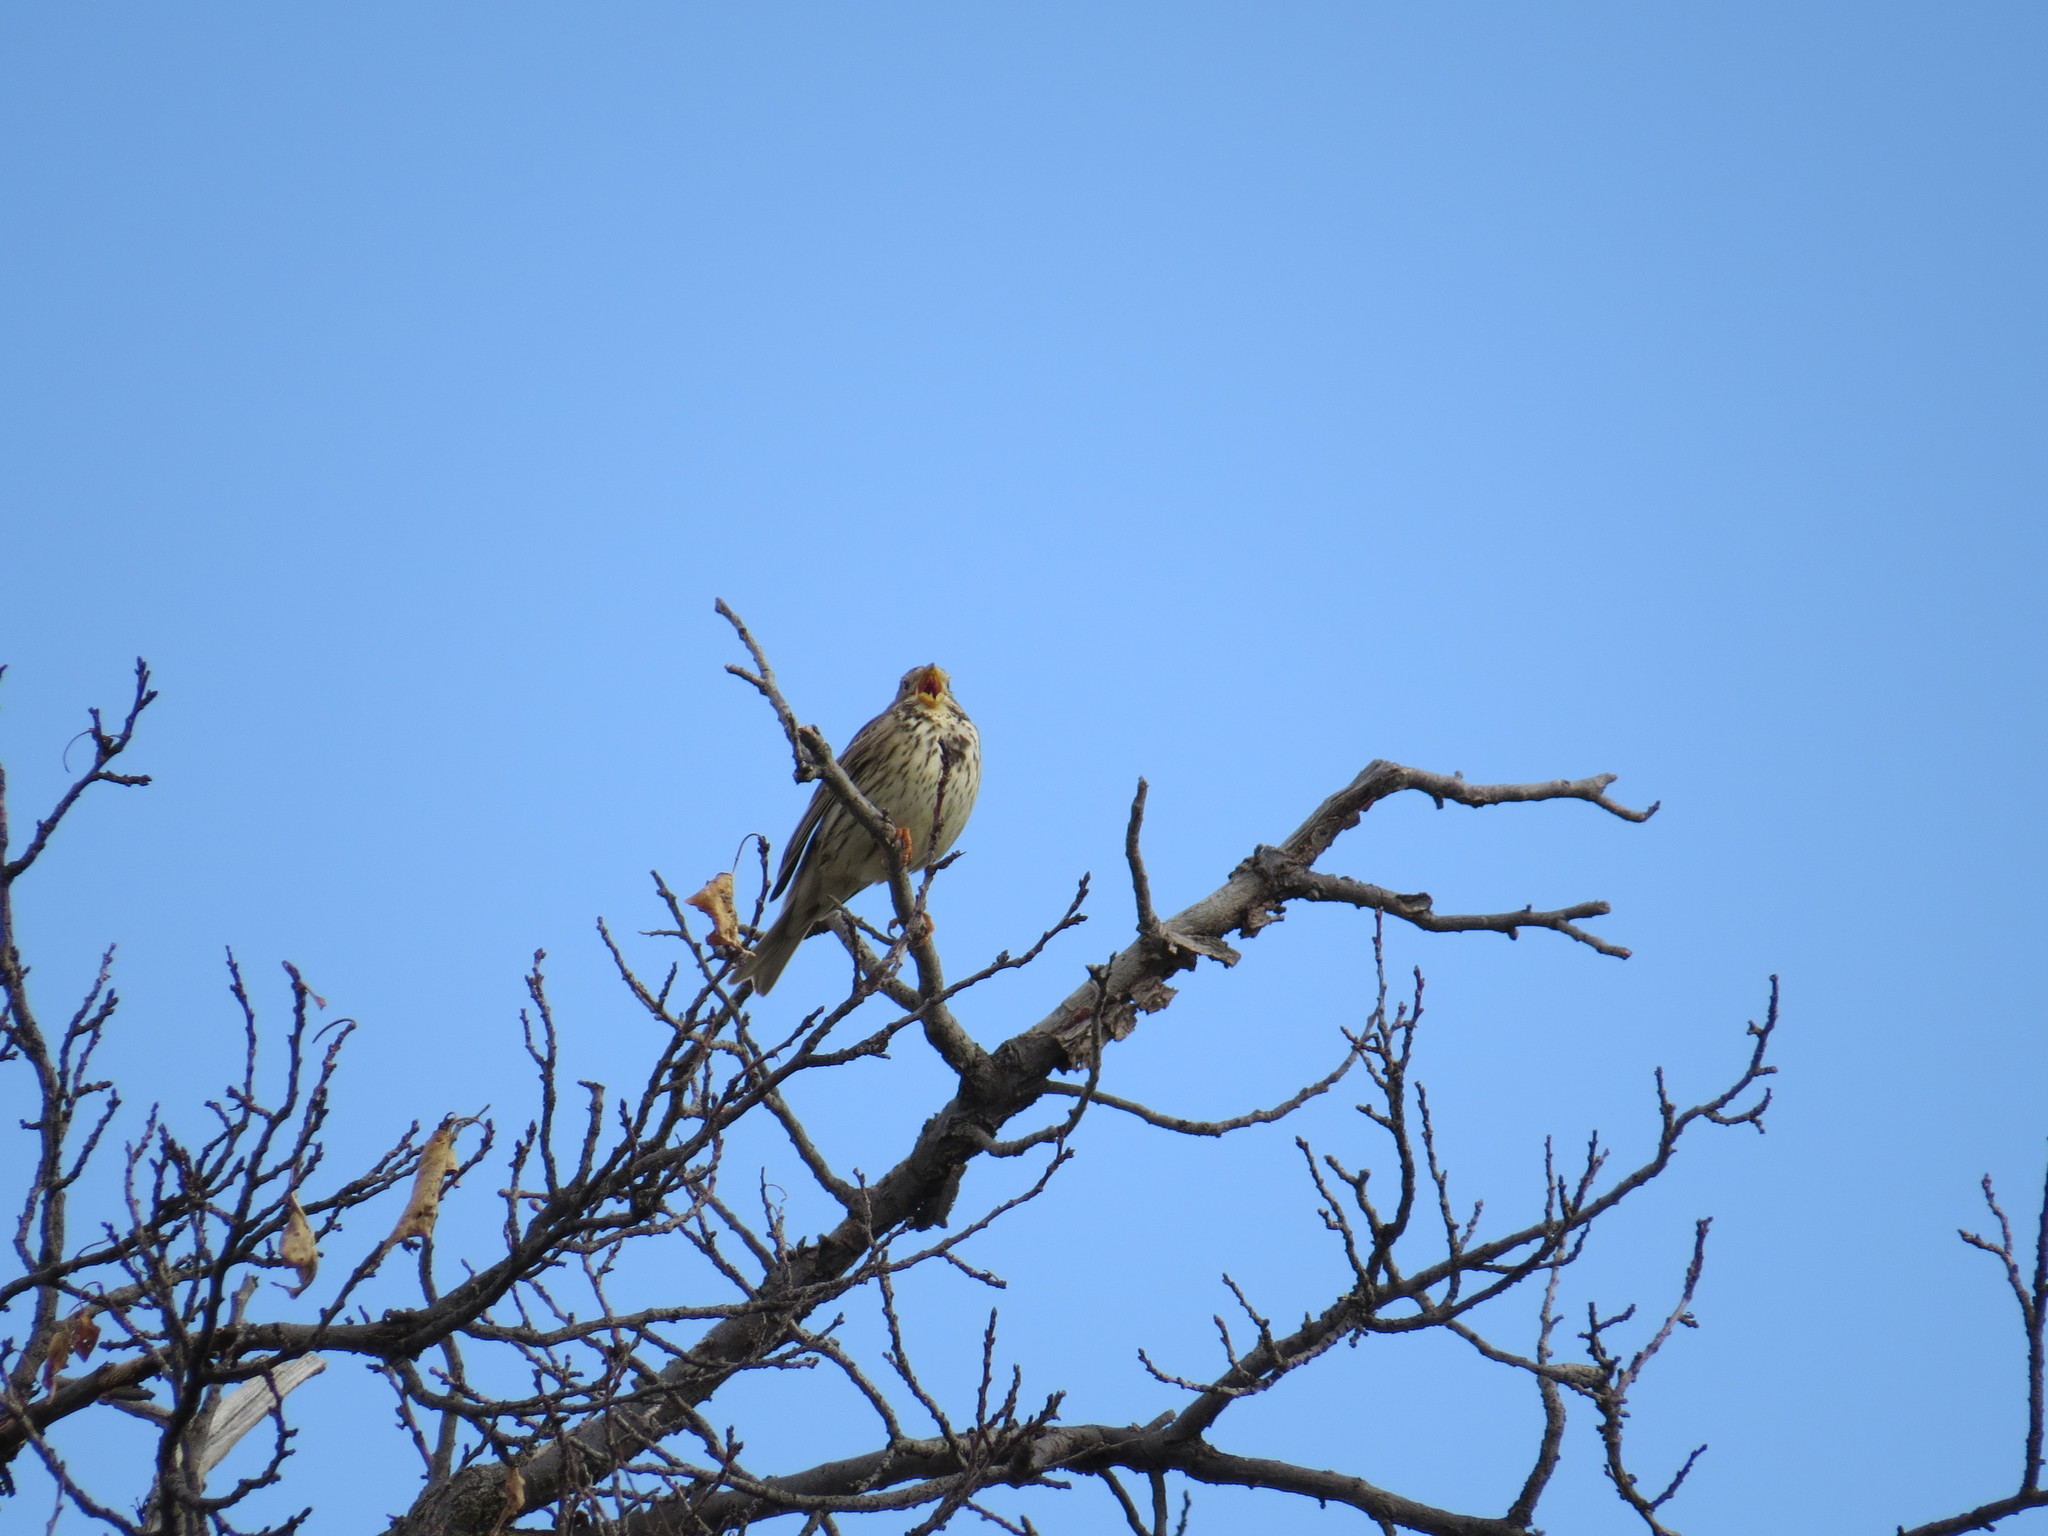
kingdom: Animalia
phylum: Chordata
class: Aves
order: Passeriformes
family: Emberizidae
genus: Emberiza
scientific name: Emberiza calandra
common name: Corn bunting
